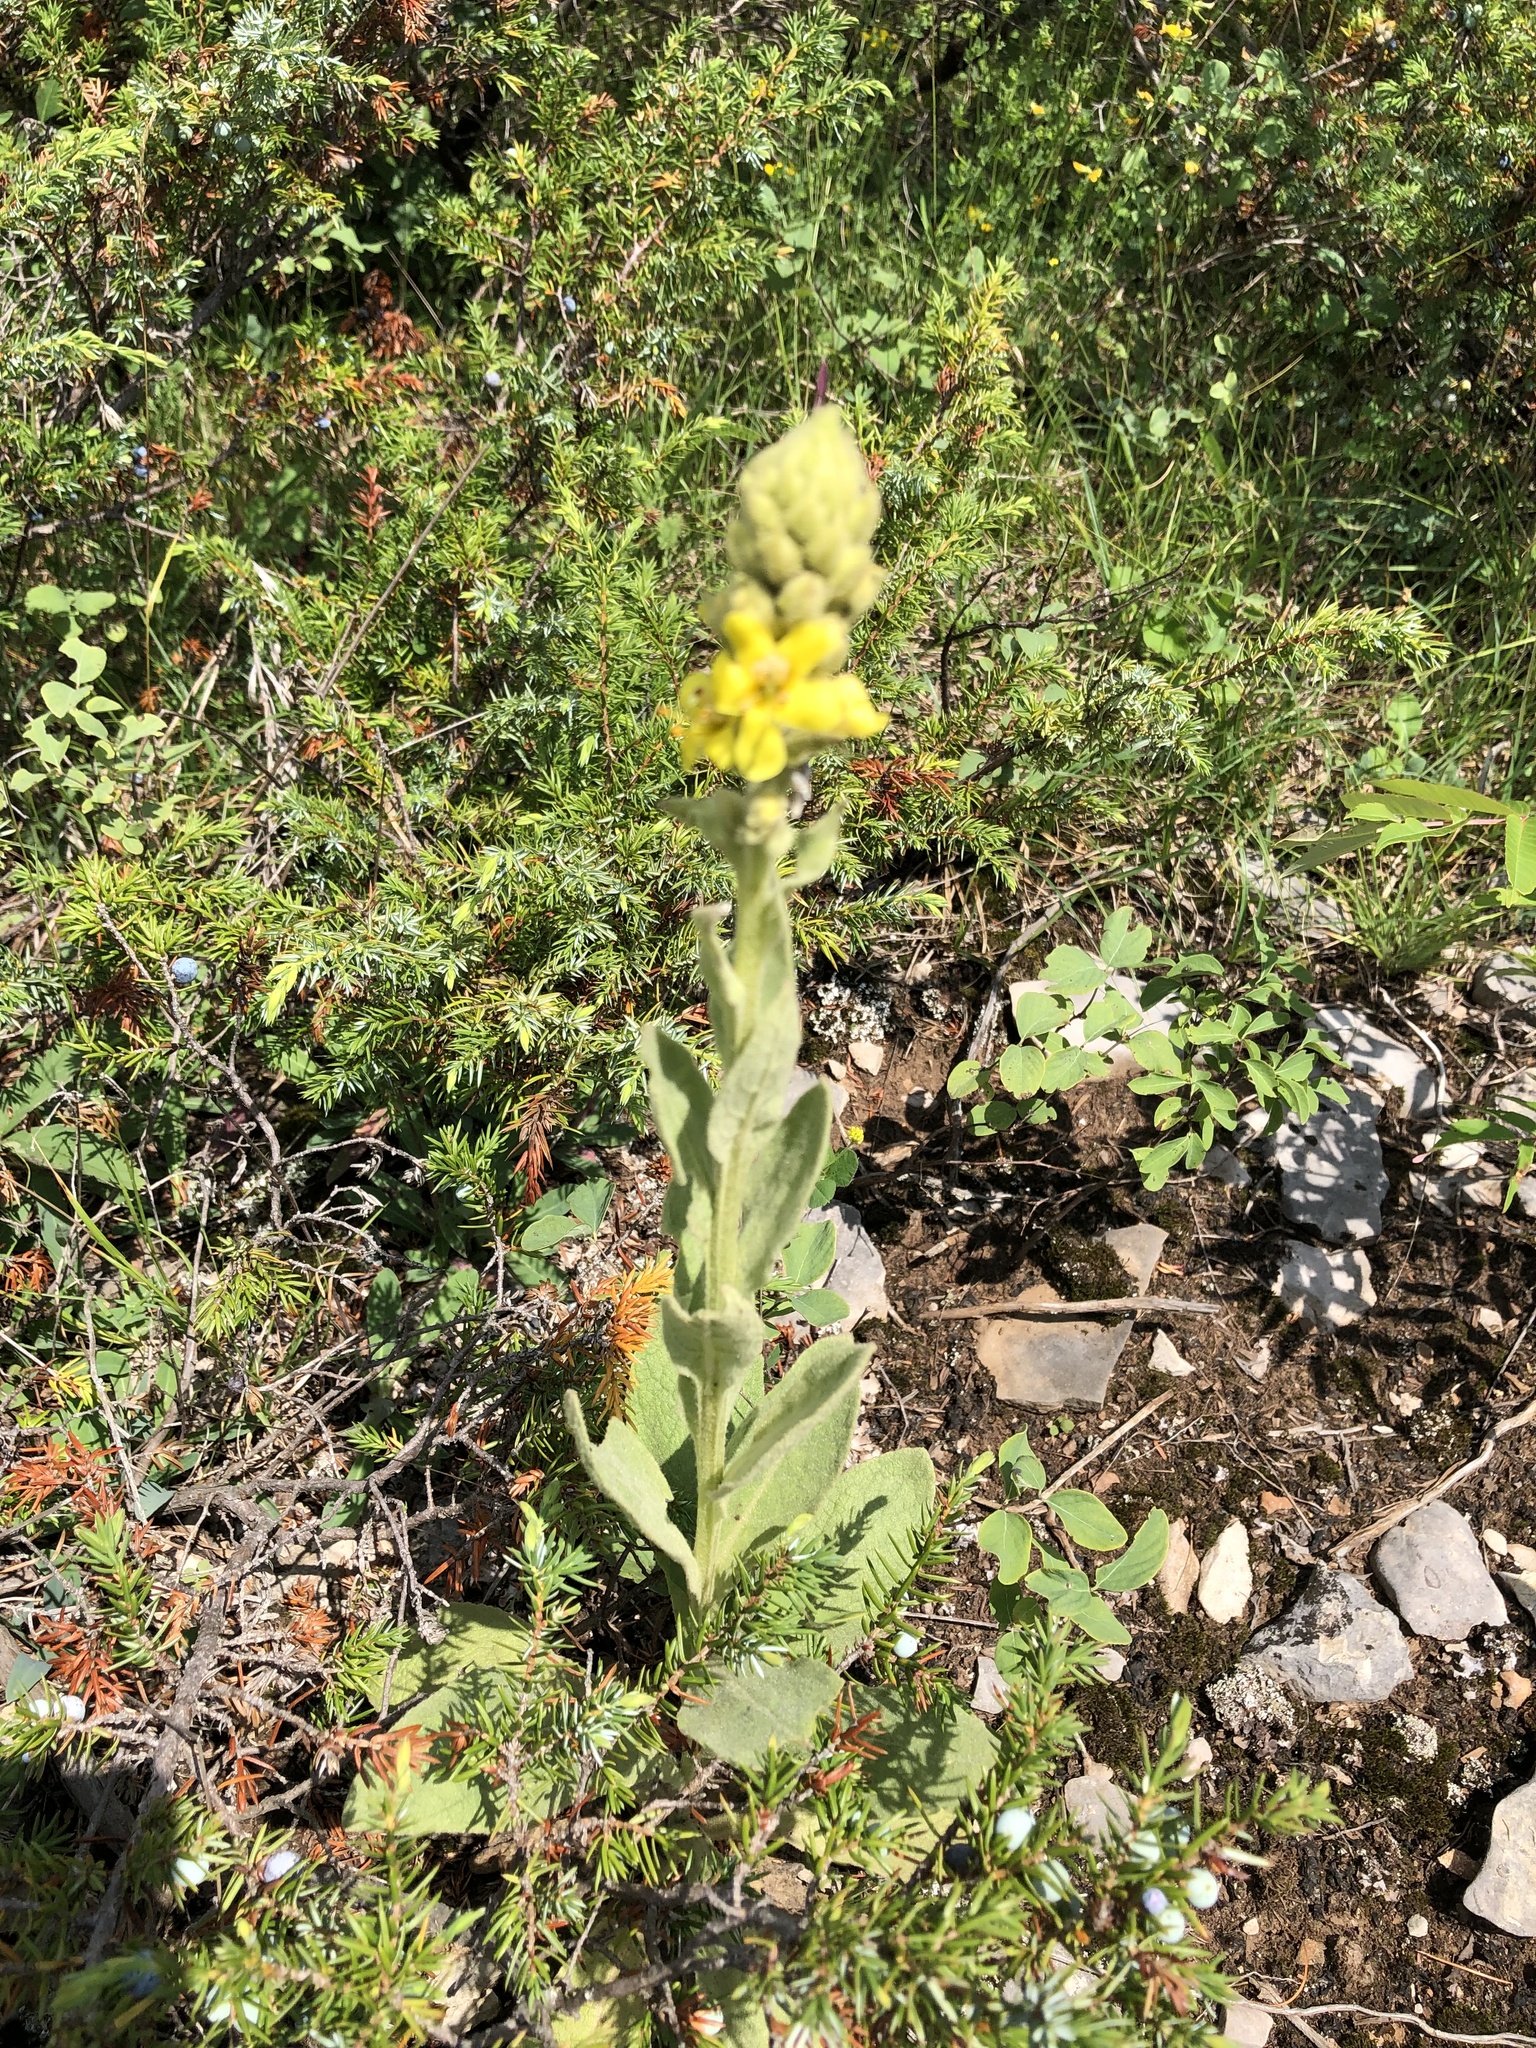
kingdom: Plantae
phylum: Tracheophyta
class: Magnoliopsida
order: Lamiales
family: Scrophulariaceae
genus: Verbascum
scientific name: Verbascum thapsus
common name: Common mullein
